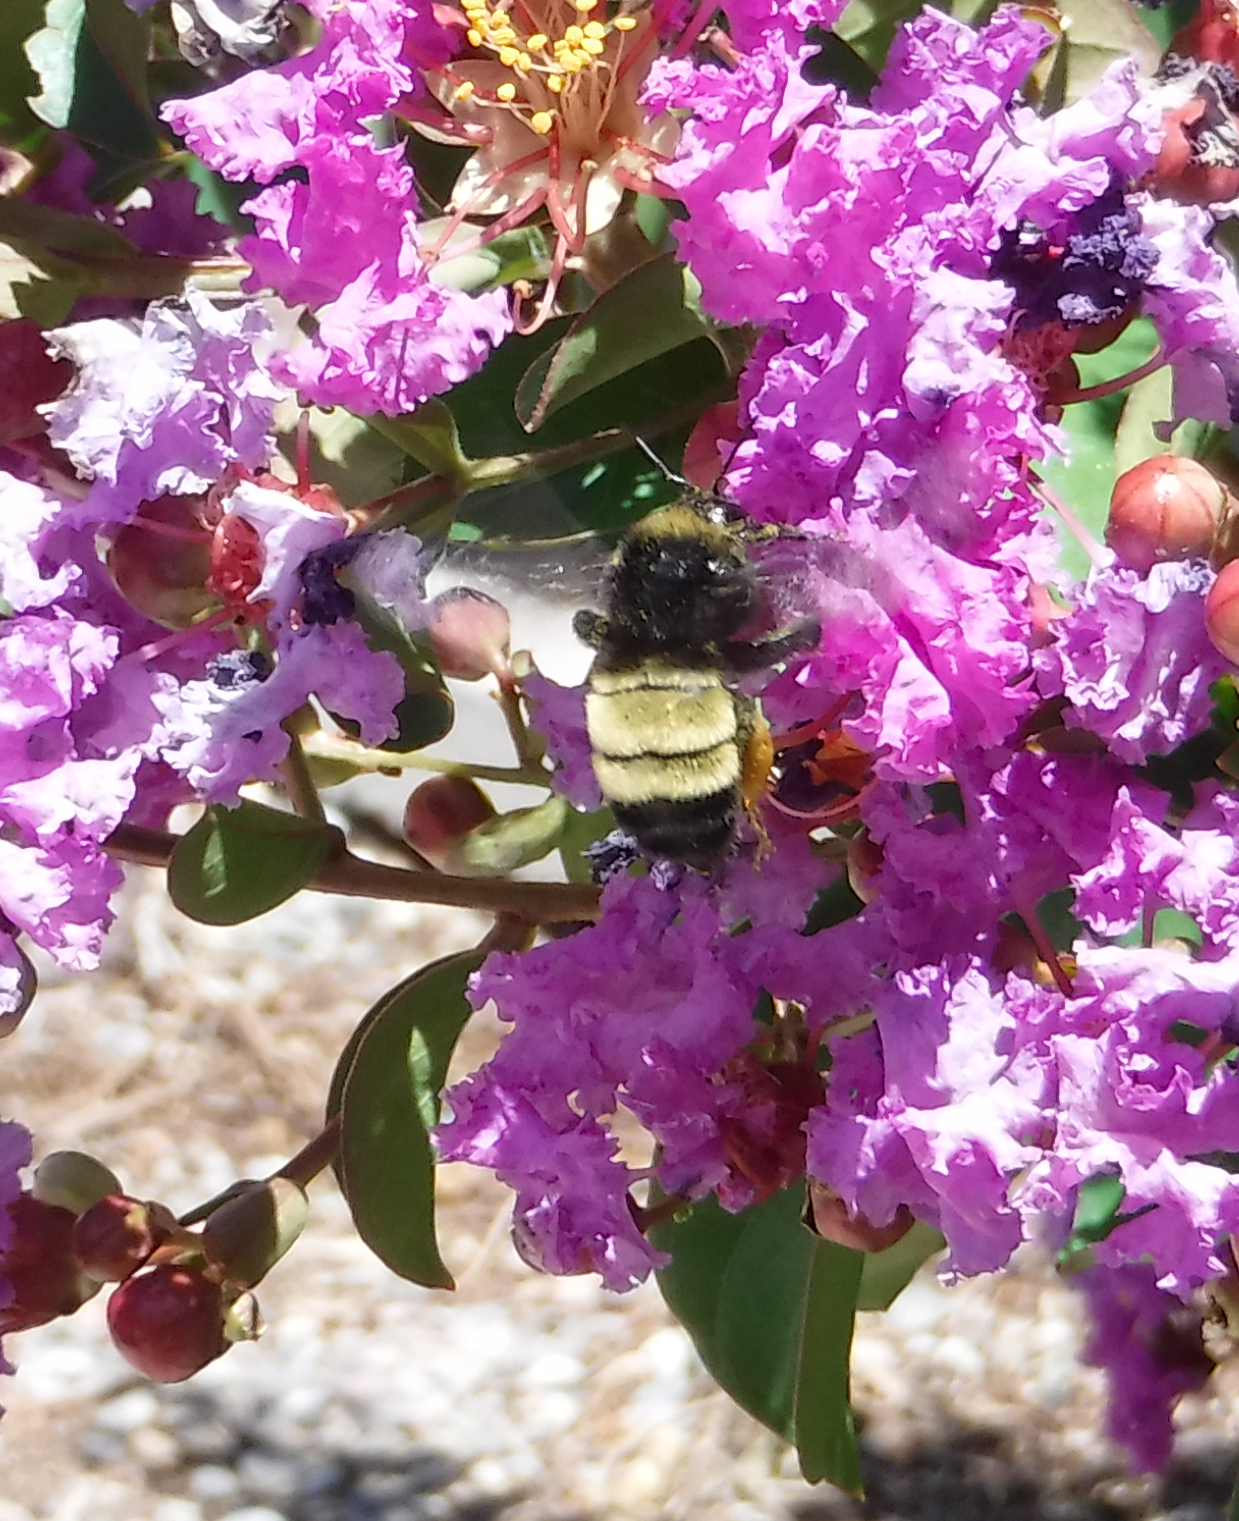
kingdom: Animalia
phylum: Arthropoda
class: Insecta
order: Hymenoptera
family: Apidae
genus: Bombus
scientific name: Bombus pensylvanicus
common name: Bumble bee
